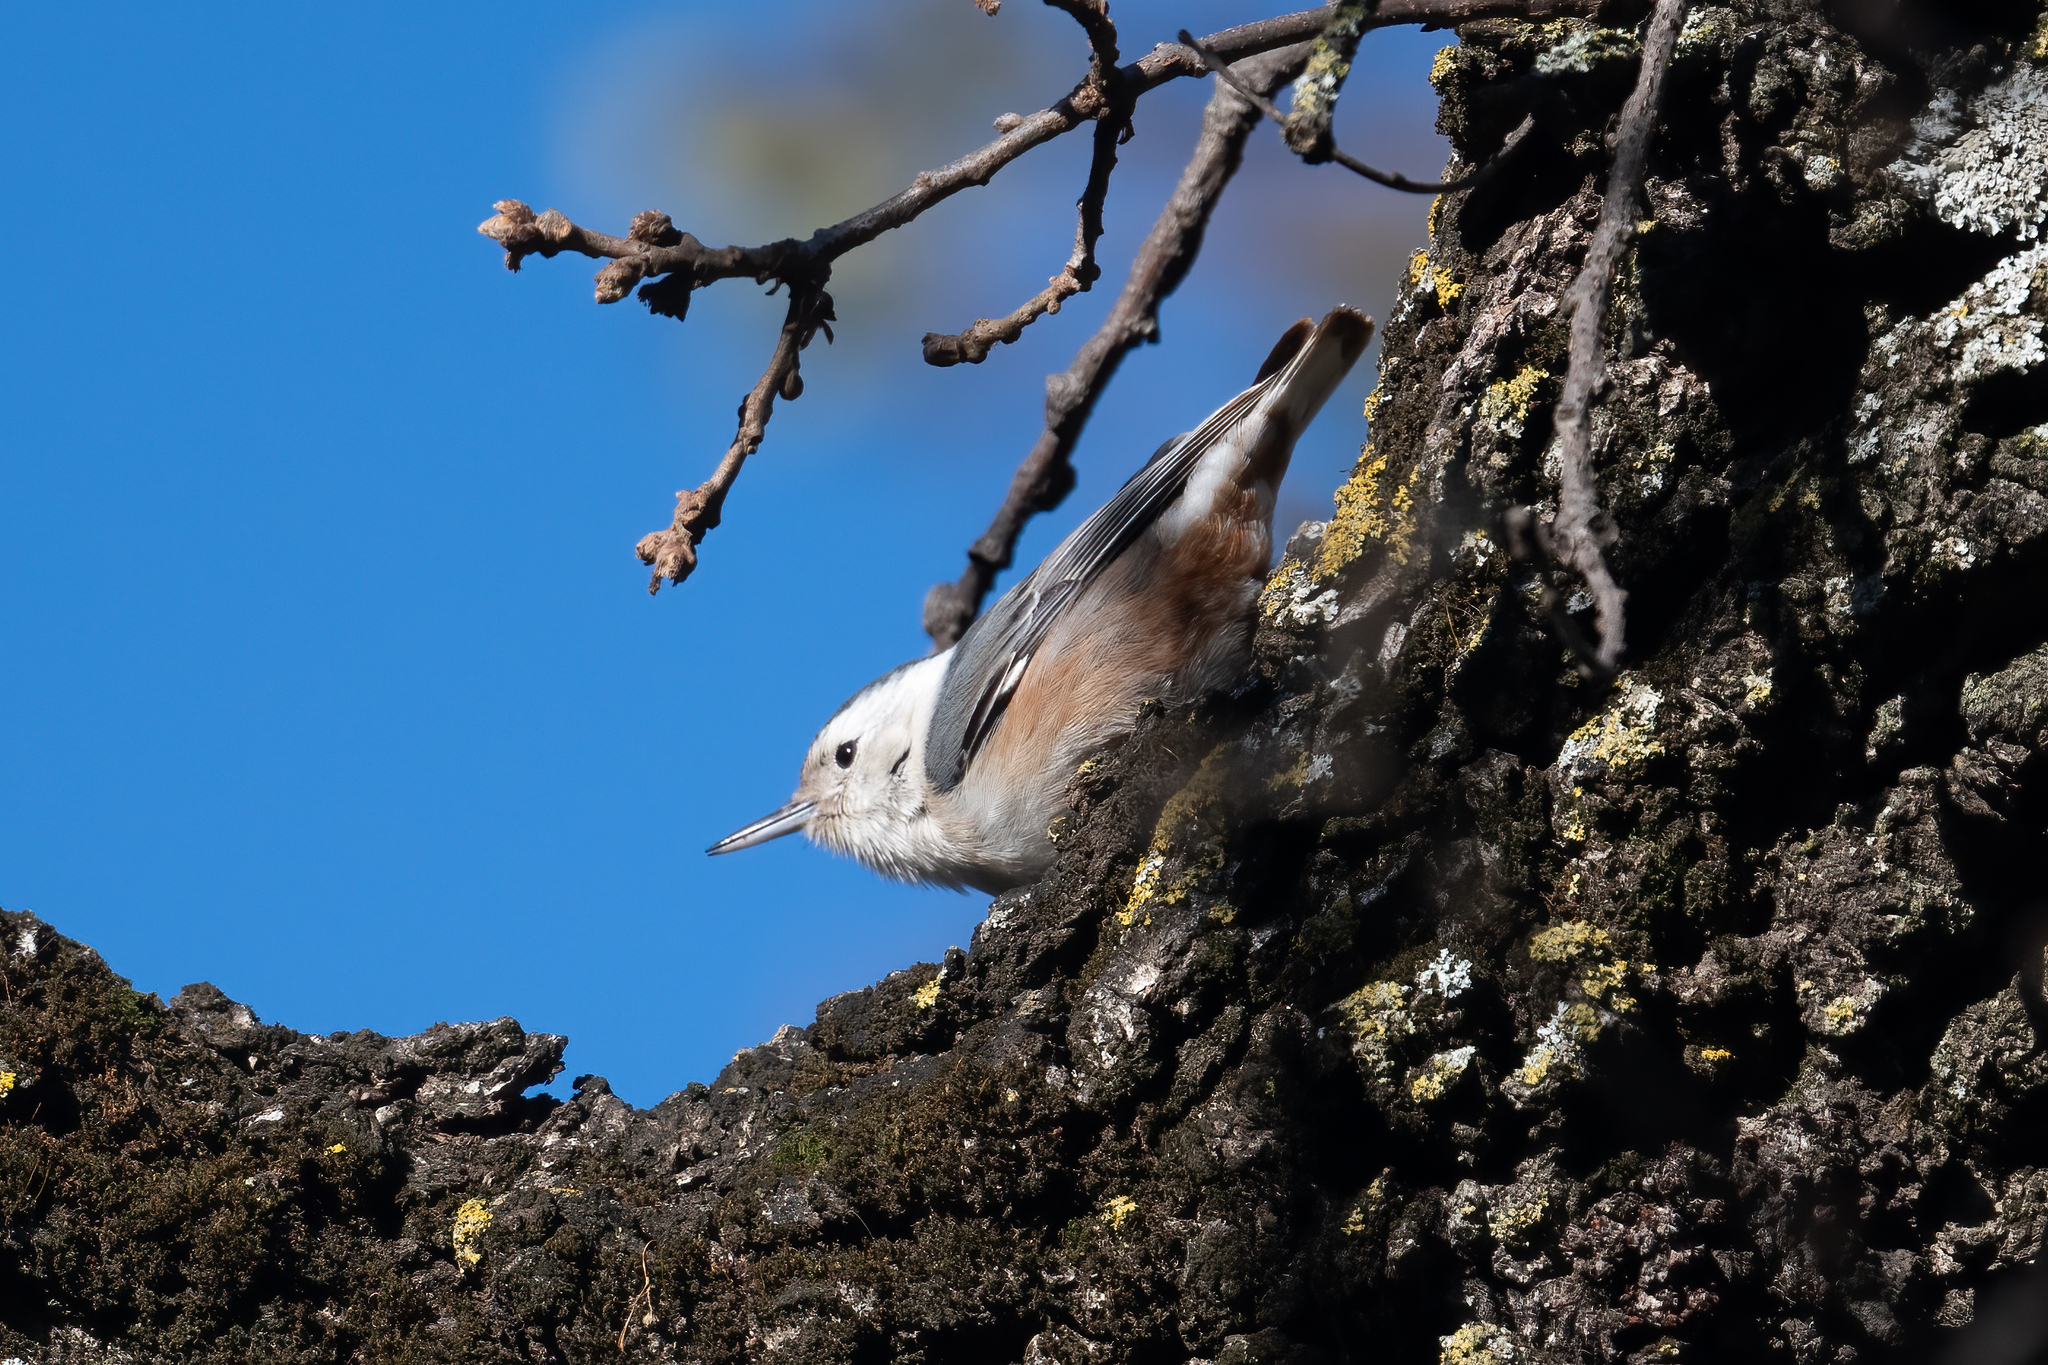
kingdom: Animalia
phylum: Chordata
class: Aves
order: Passeriformes
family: Sittidae
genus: Sitta
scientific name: Sitta carolinensis
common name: White-breasted nuthatch
